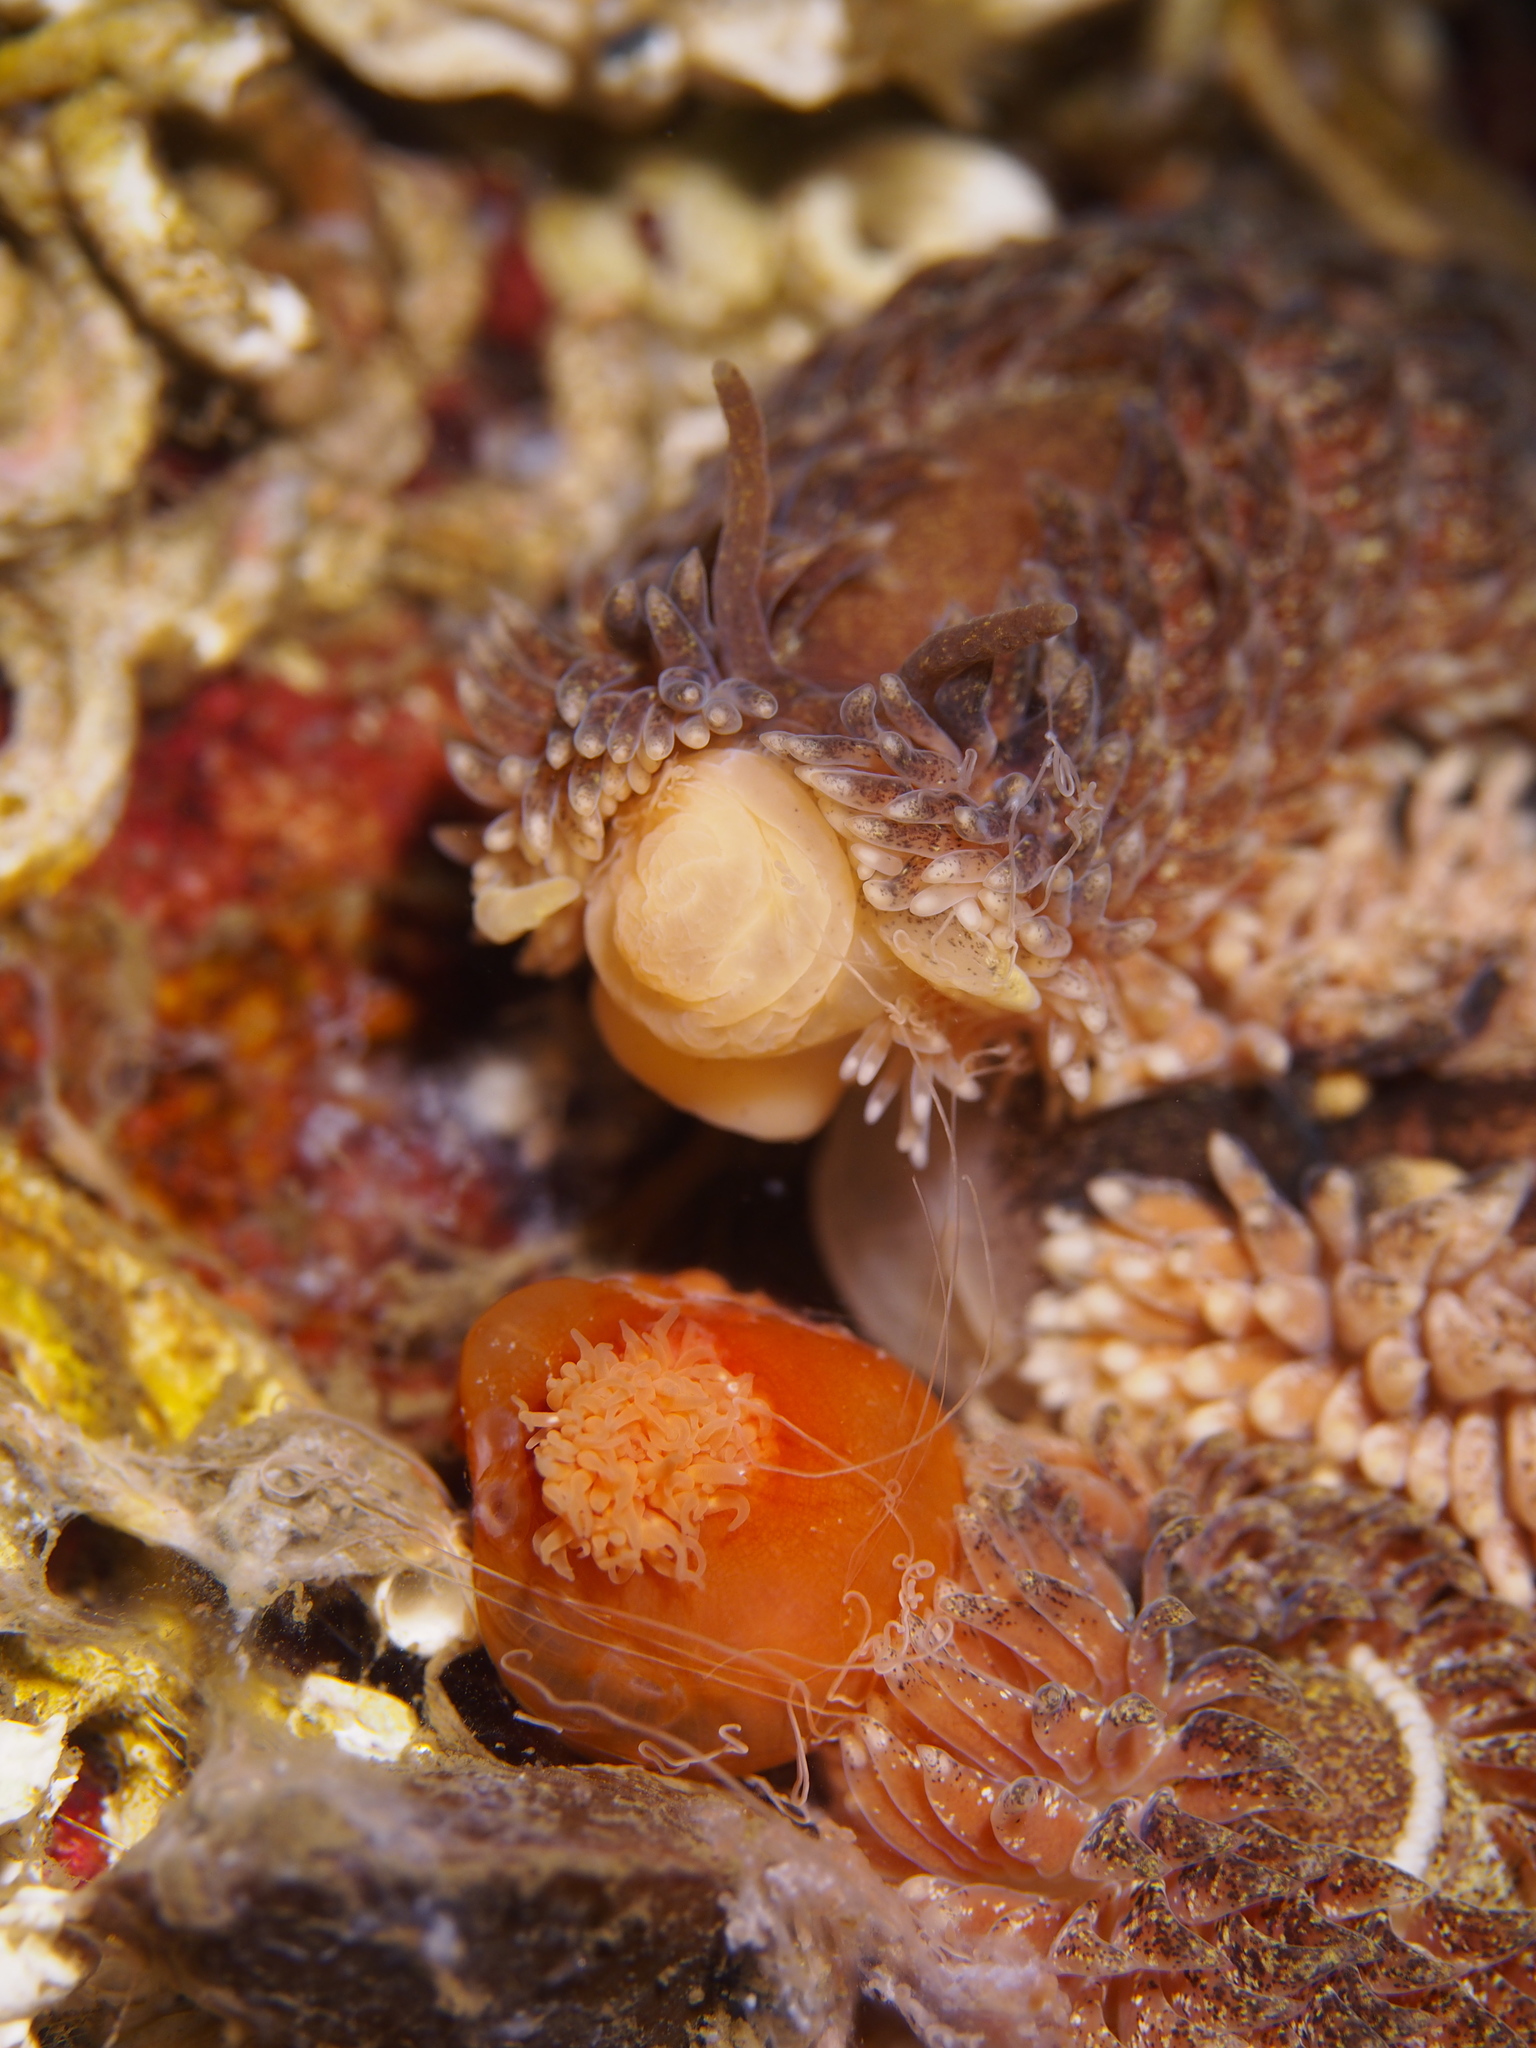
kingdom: Animalia
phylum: Mollusca
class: Gastropoda
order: Nudibranchia
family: Aeolidiidae
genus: Aeolidia
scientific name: Aeolidia papillosa
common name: Common grey sea slug
